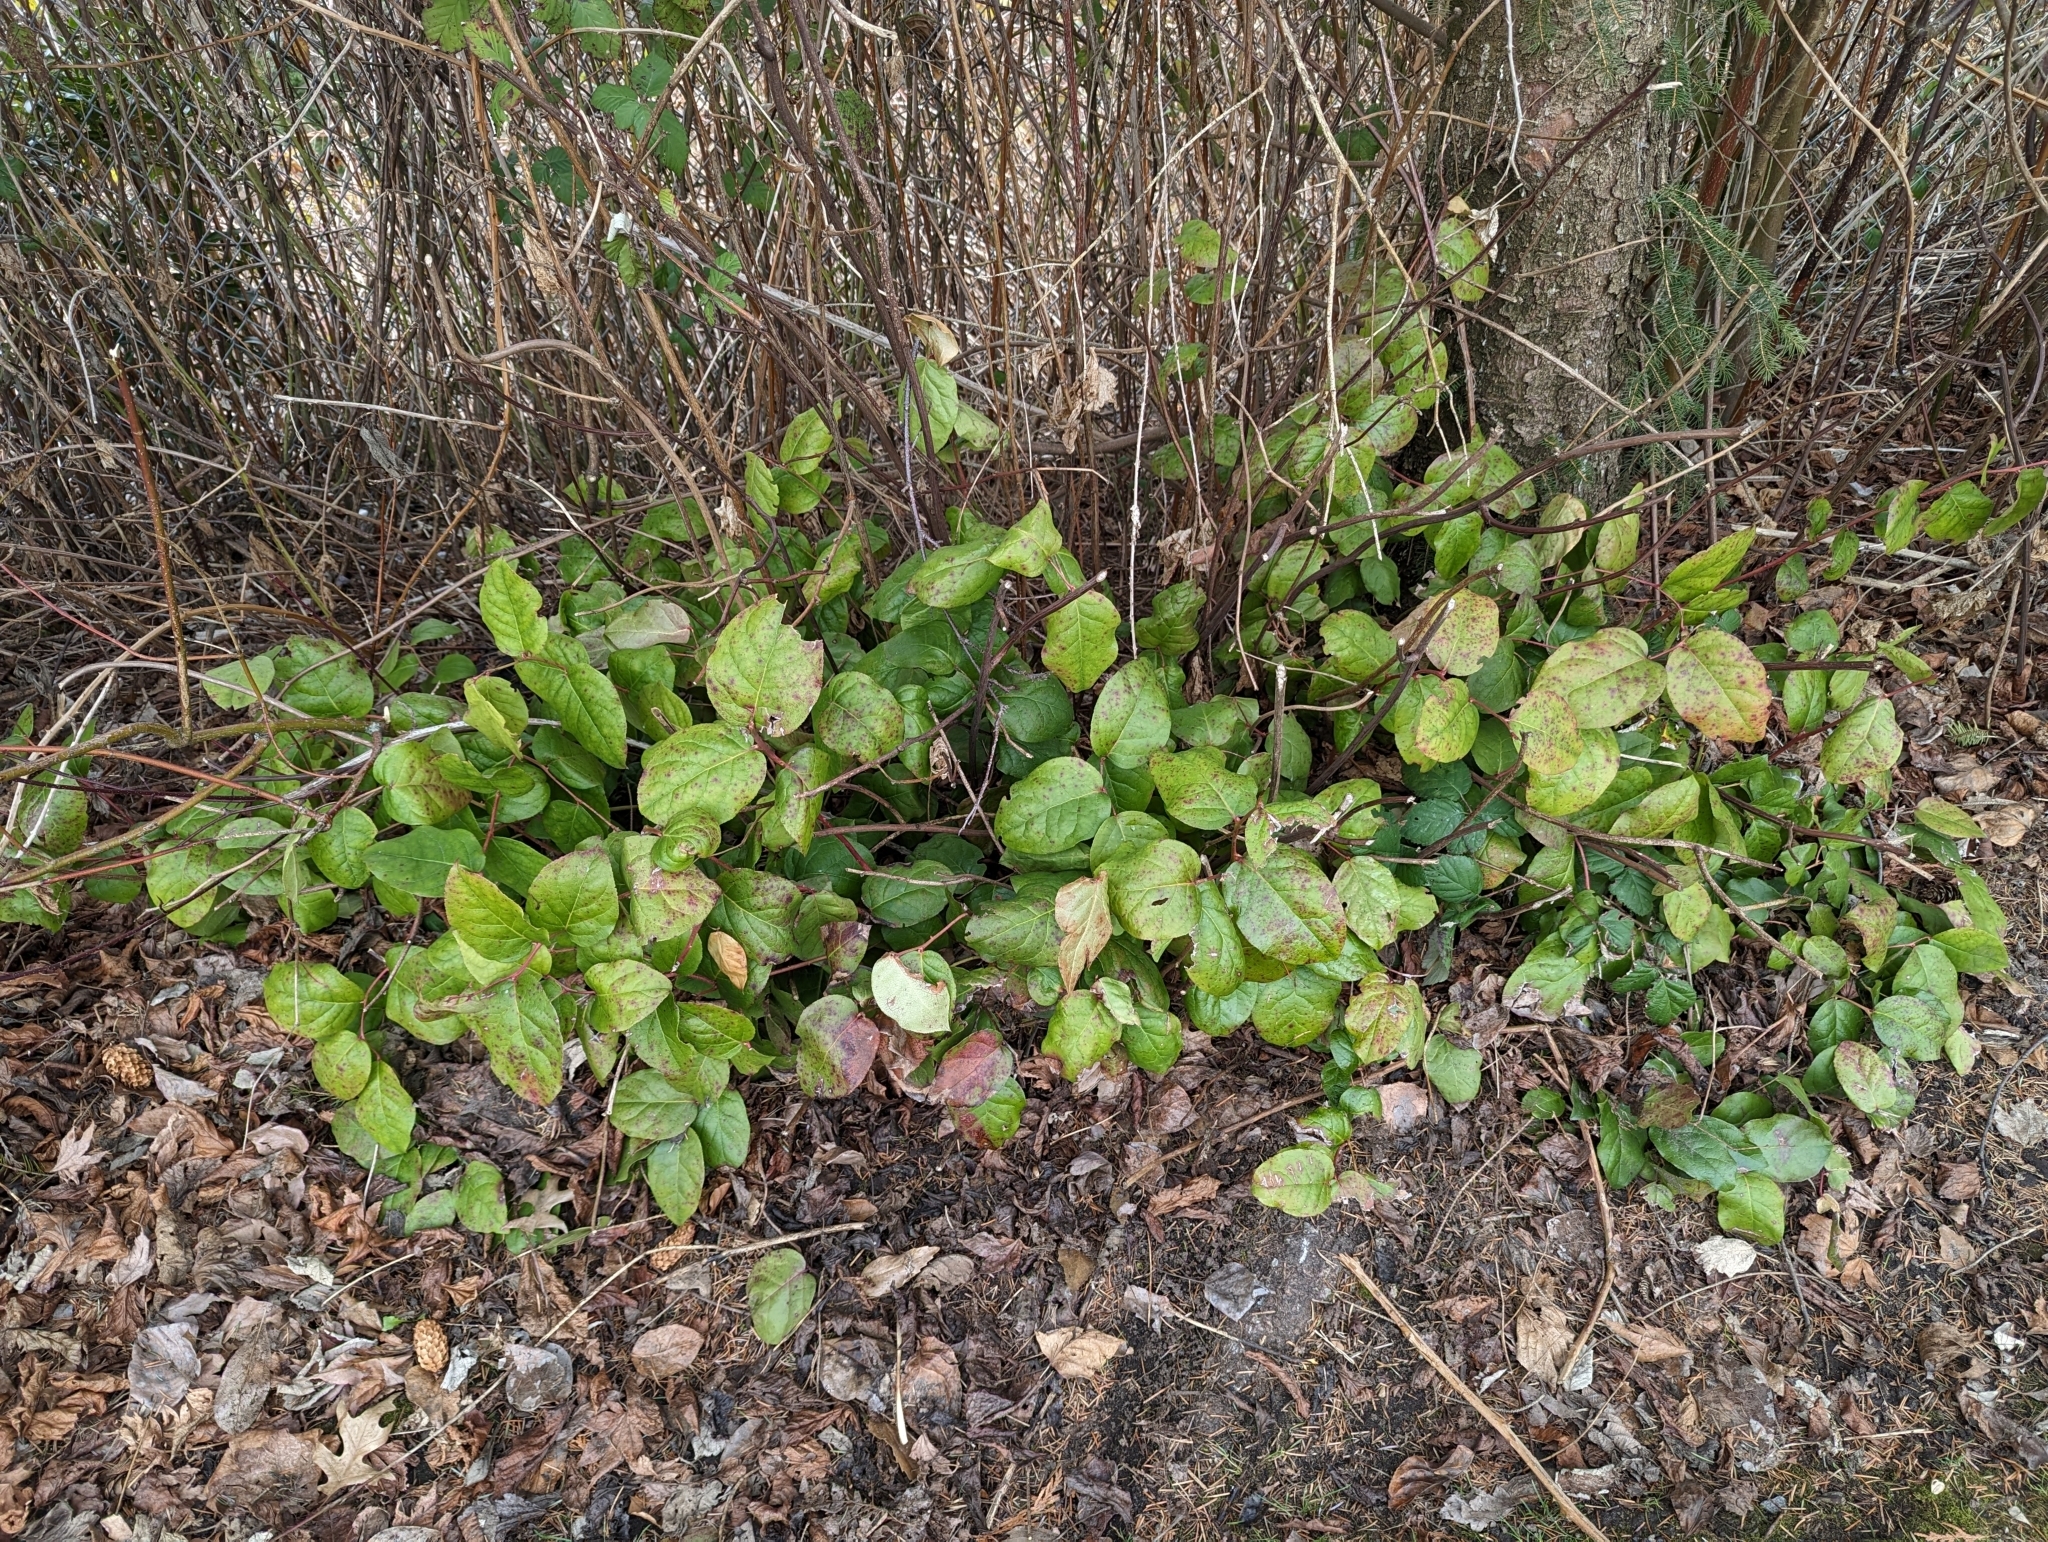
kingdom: Plantae
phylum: Tracheophyta
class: Magnoliopsida
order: Ericales
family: Ericaceae
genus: Gaultheria
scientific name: Gaultheria shallon
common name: Shallon
